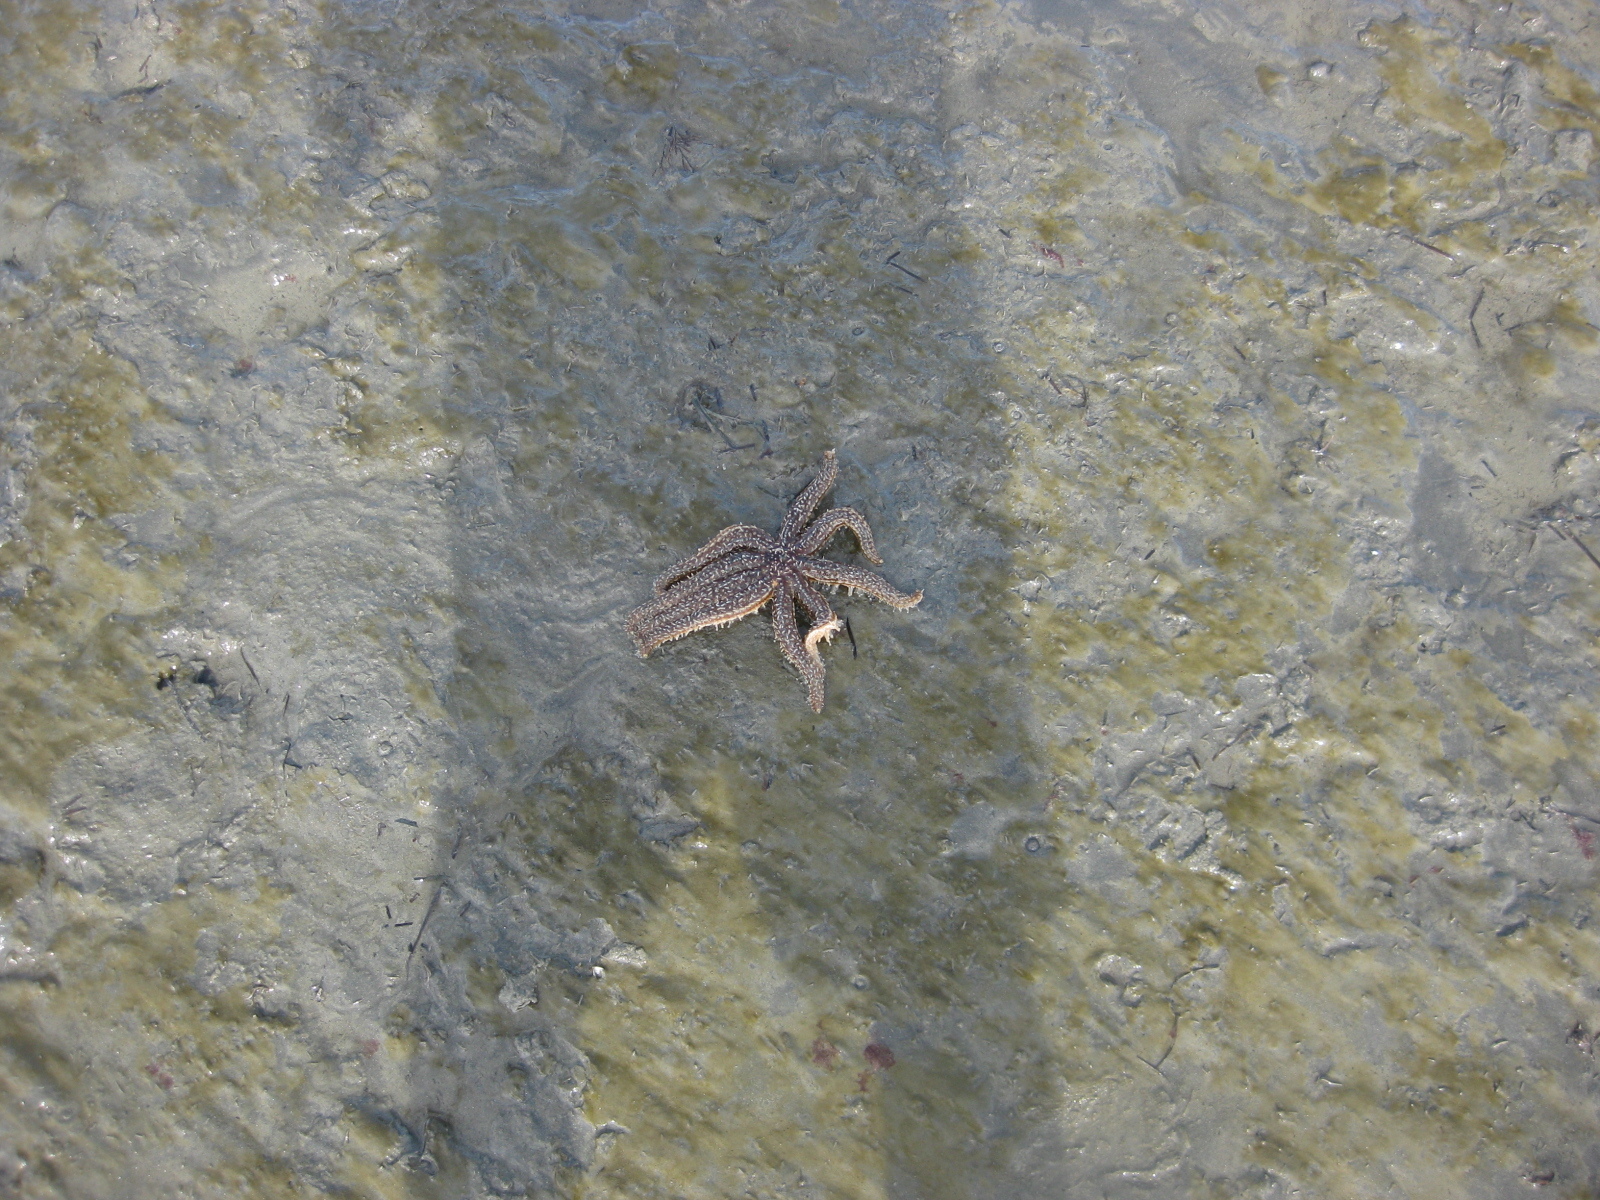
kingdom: Animalia
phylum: Echinodermata
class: Asteroidea
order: Forcipulatida
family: Asteriidae
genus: Coscinasterias
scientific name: Coscinasterias muricata
